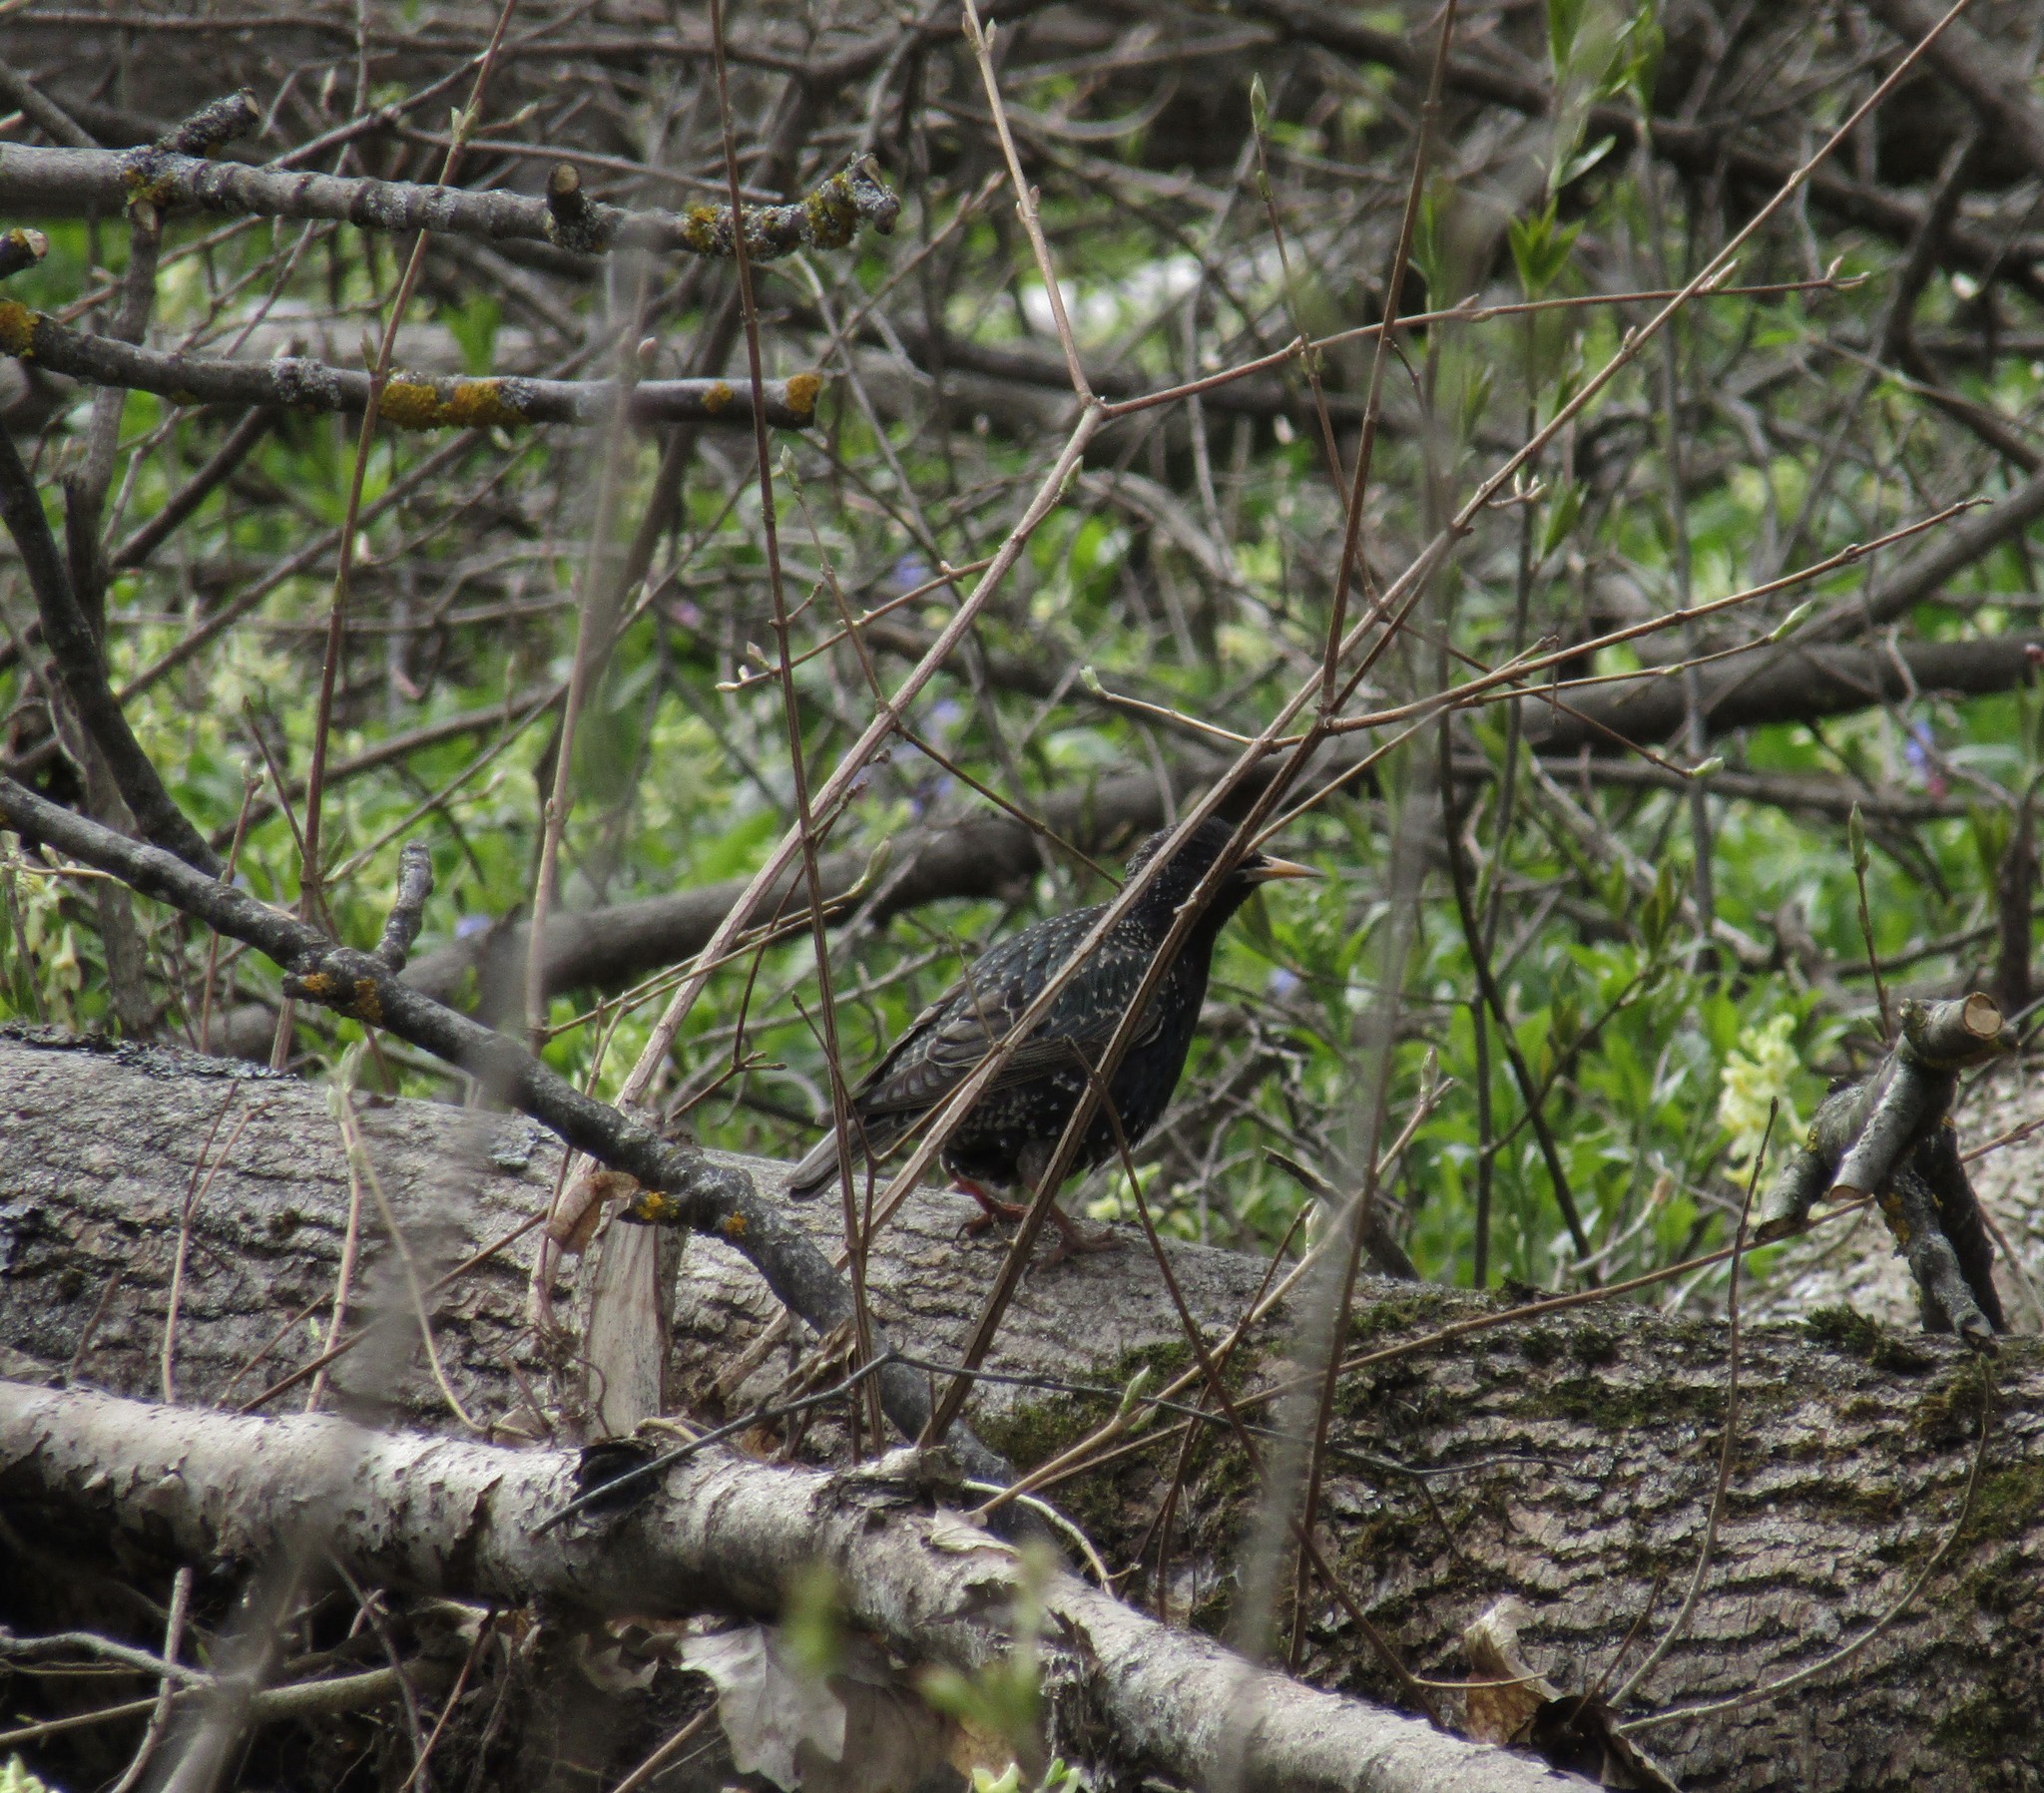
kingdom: Animalia
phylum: Chordata
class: Aves
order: Passeriformes
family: Sturnidae
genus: Sturnus
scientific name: Sturnus vulgaris
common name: Common starling
